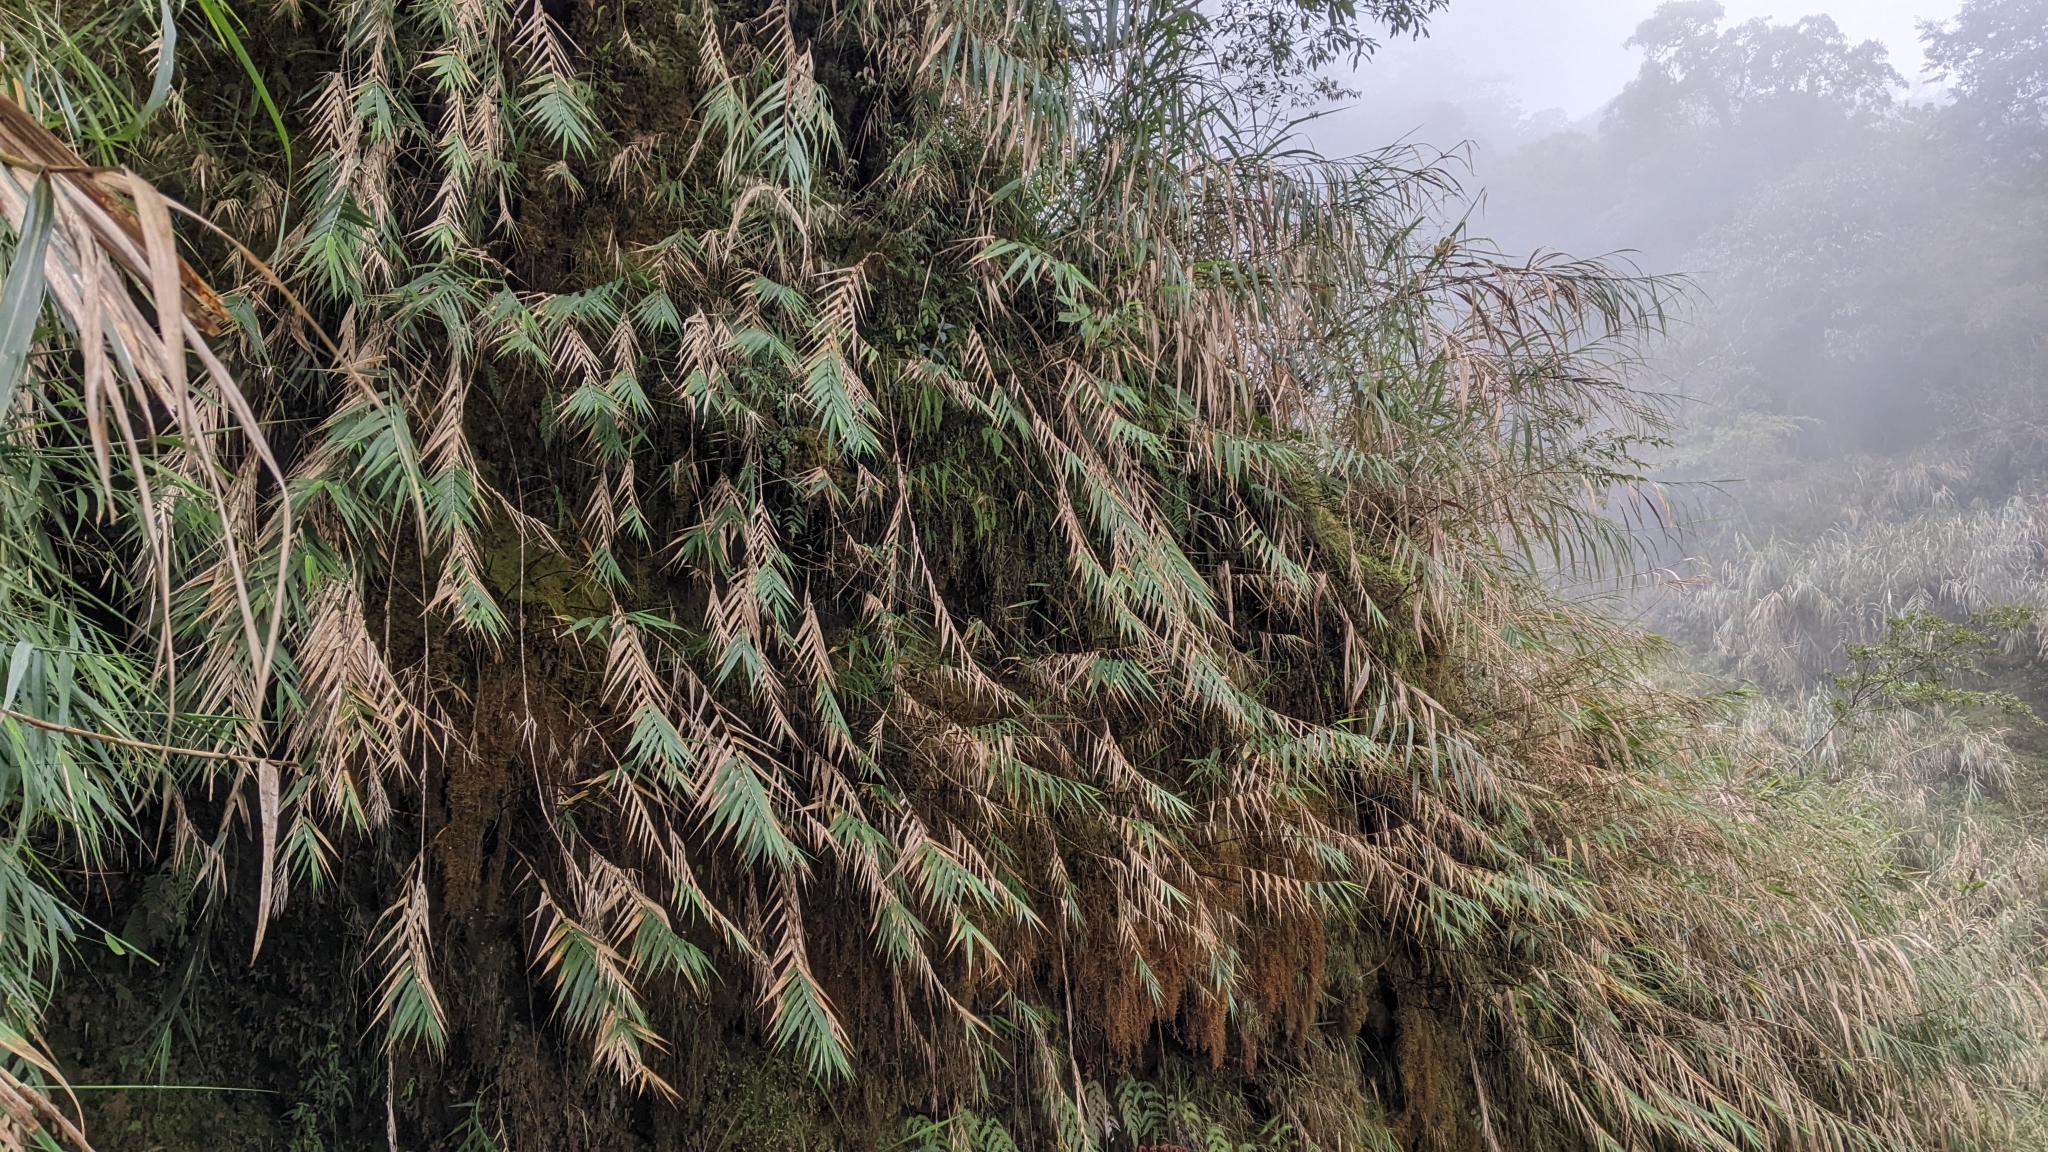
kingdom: Plantae
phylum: Tracheophyta
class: Liliopsida
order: Poales
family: Poaceae
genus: Arundo
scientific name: Arundo formosana
